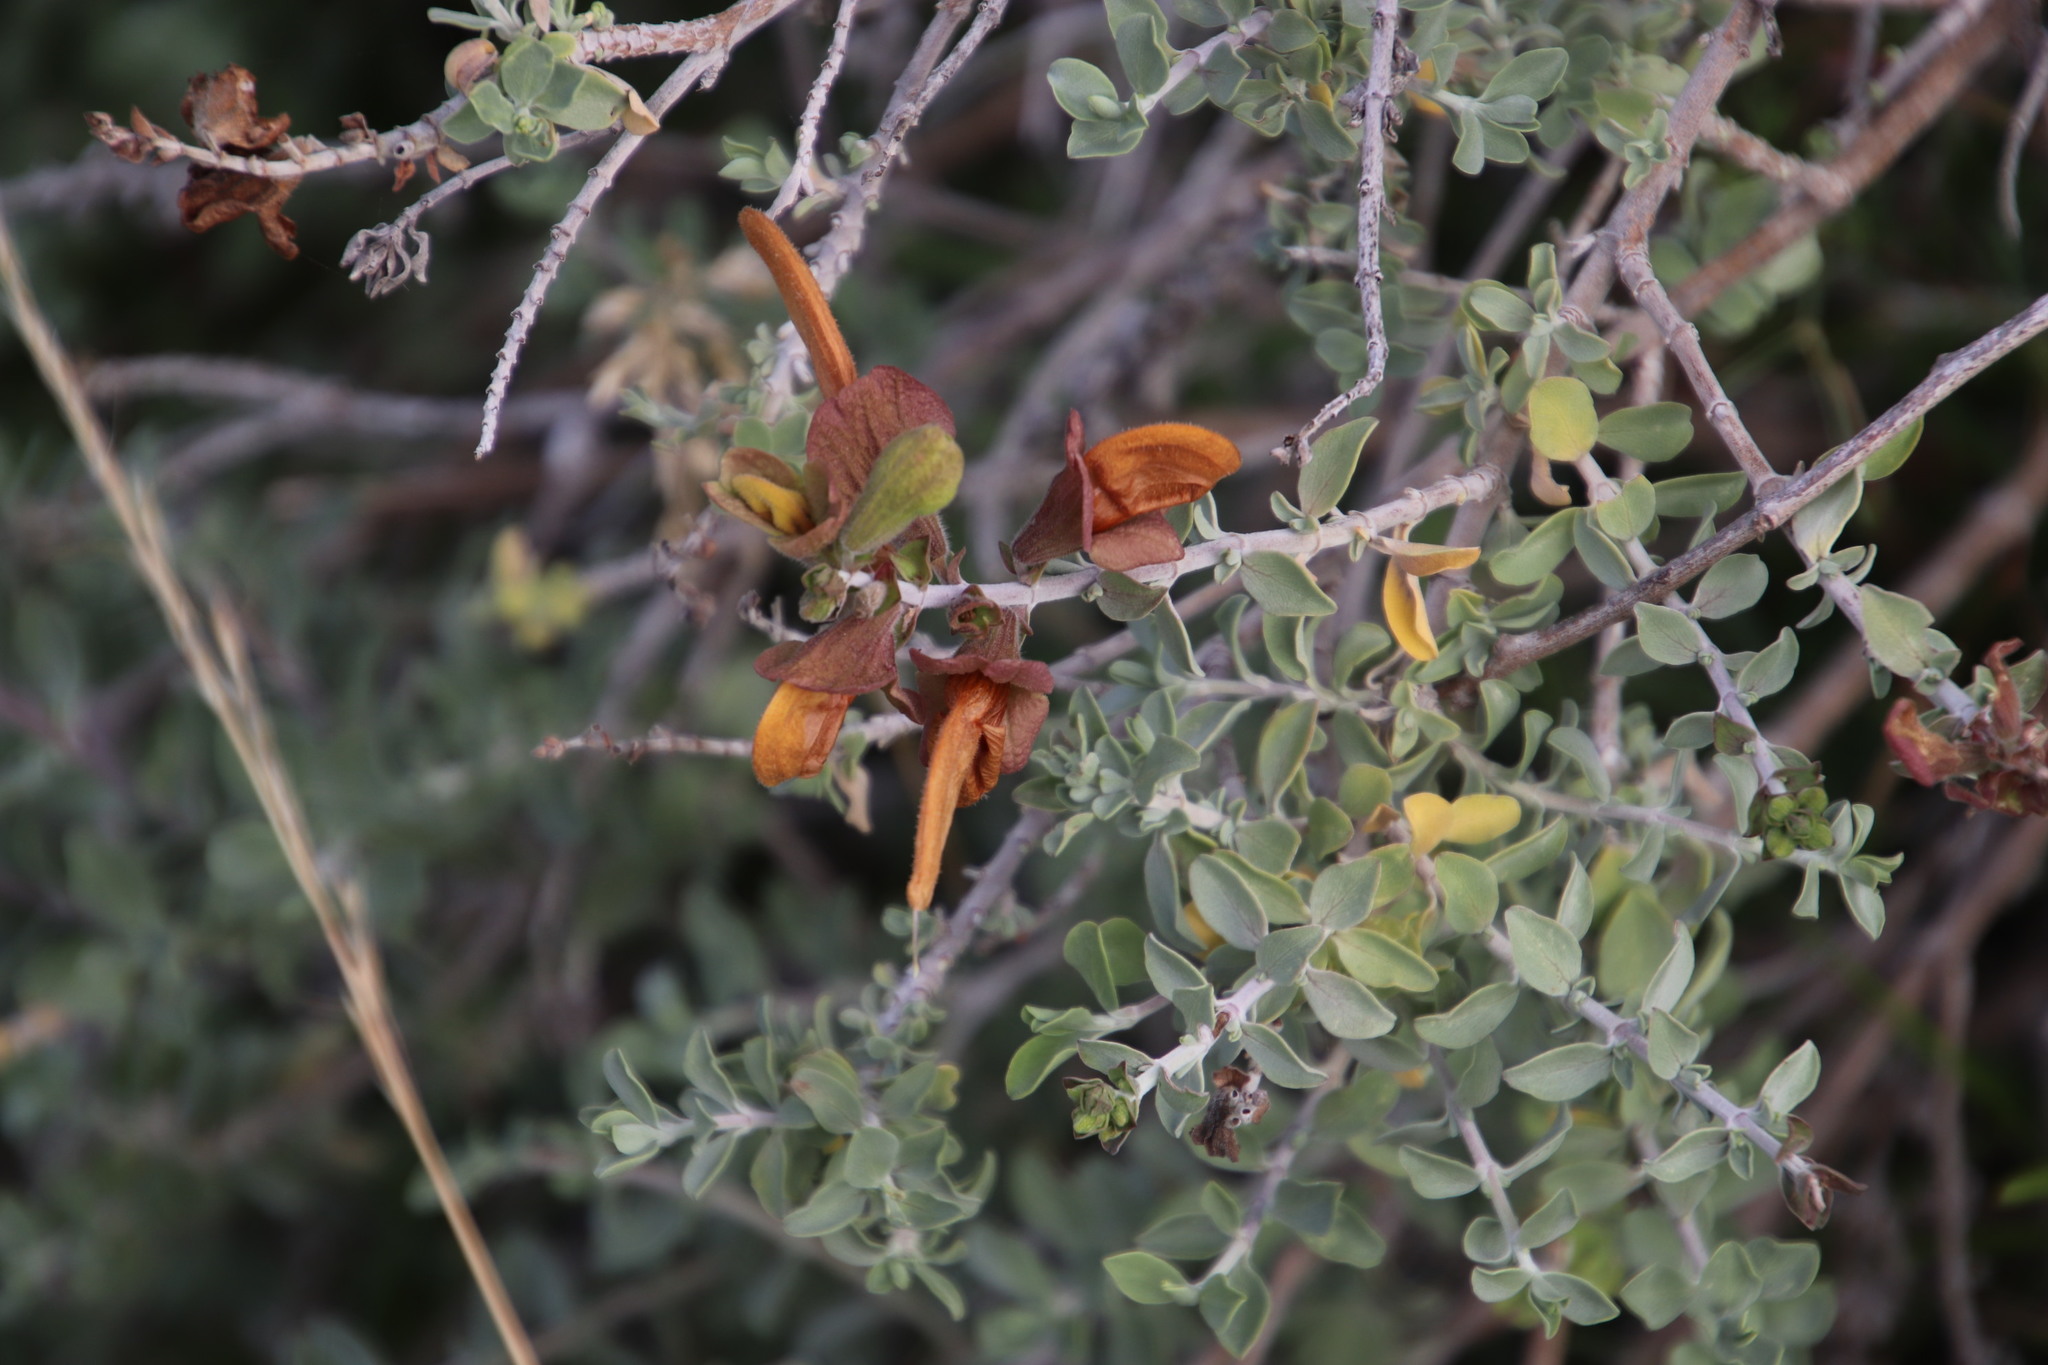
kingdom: Plantae
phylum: Tracheophyta
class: Magnoliopsida
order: Lamiales
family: Lamiaceae
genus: Salvia
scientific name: Salvia aurea
